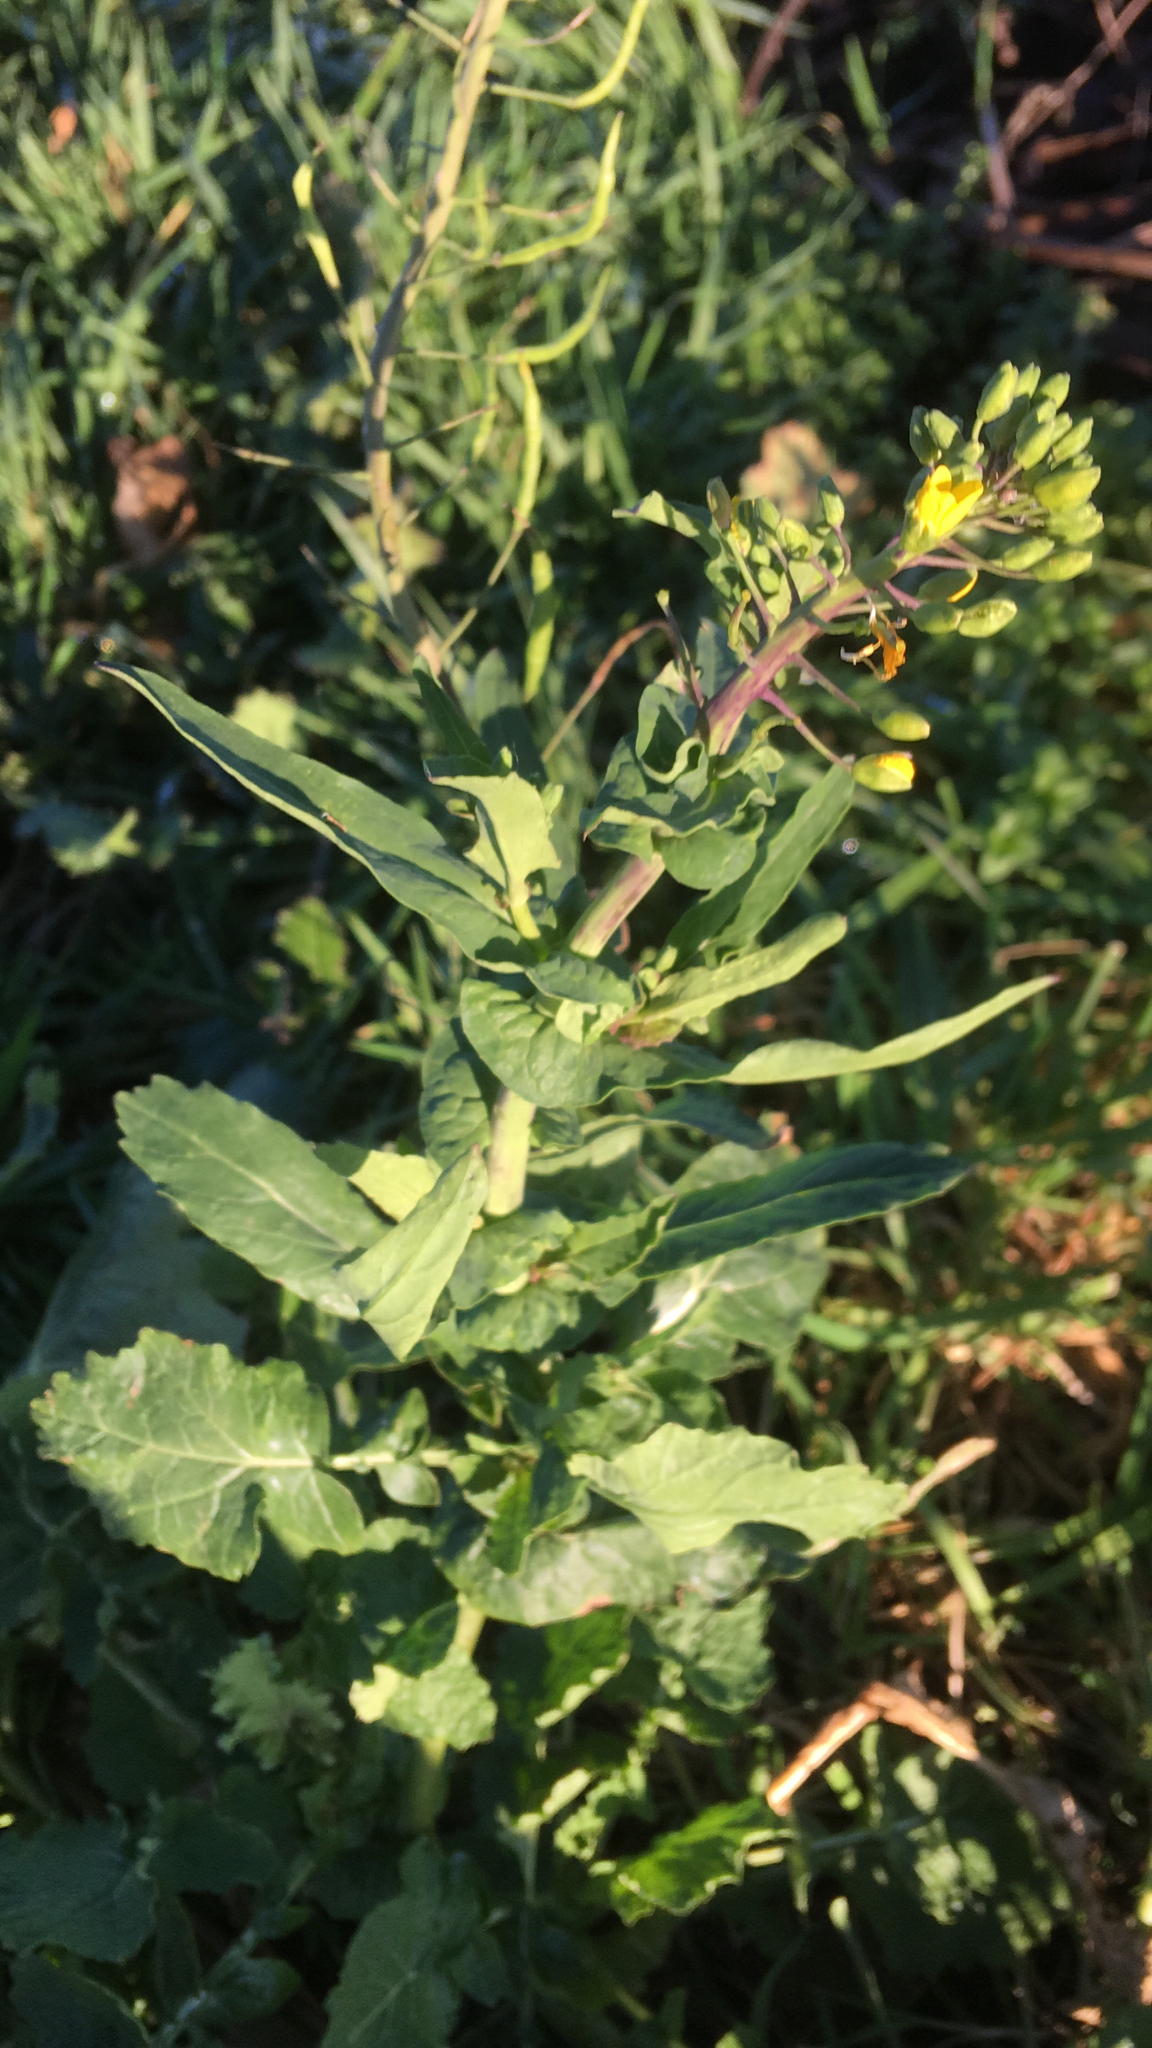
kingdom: Plantae
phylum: Tracheophyta
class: Magnoliopsida
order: Brassicales
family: Brassicaceae
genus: Brassica
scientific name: Brassica rapa
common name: Field mustard
